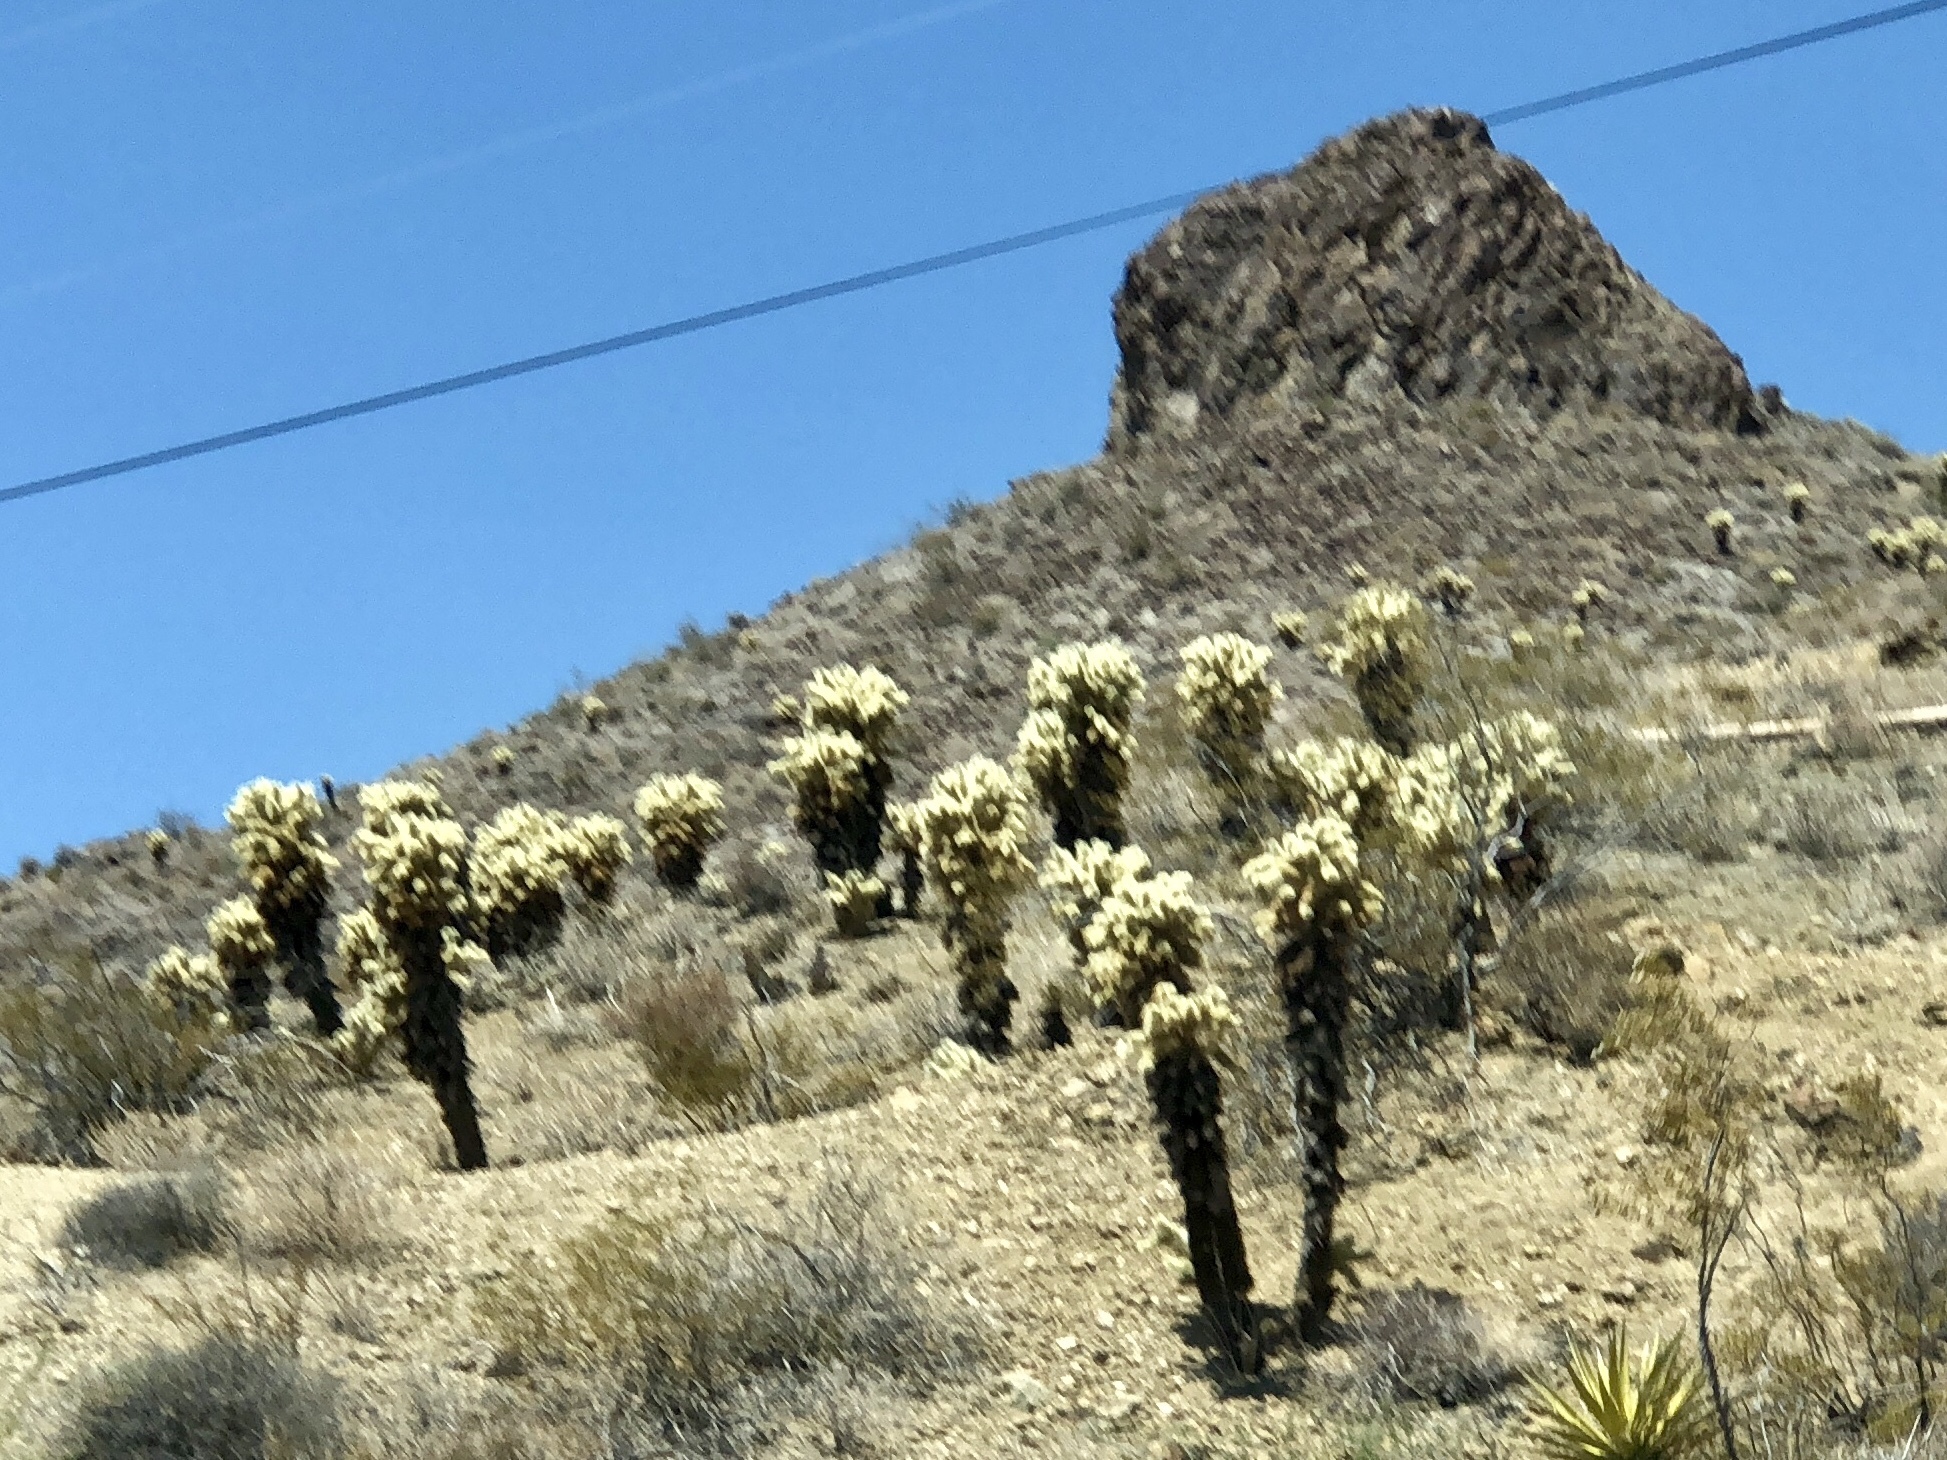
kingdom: Plantae
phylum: Tracheophyta
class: Magnoliopsida
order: Caryophyllales
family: Cactaceae
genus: Cylindropuntia
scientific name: Cylindropuntia fosbergii
